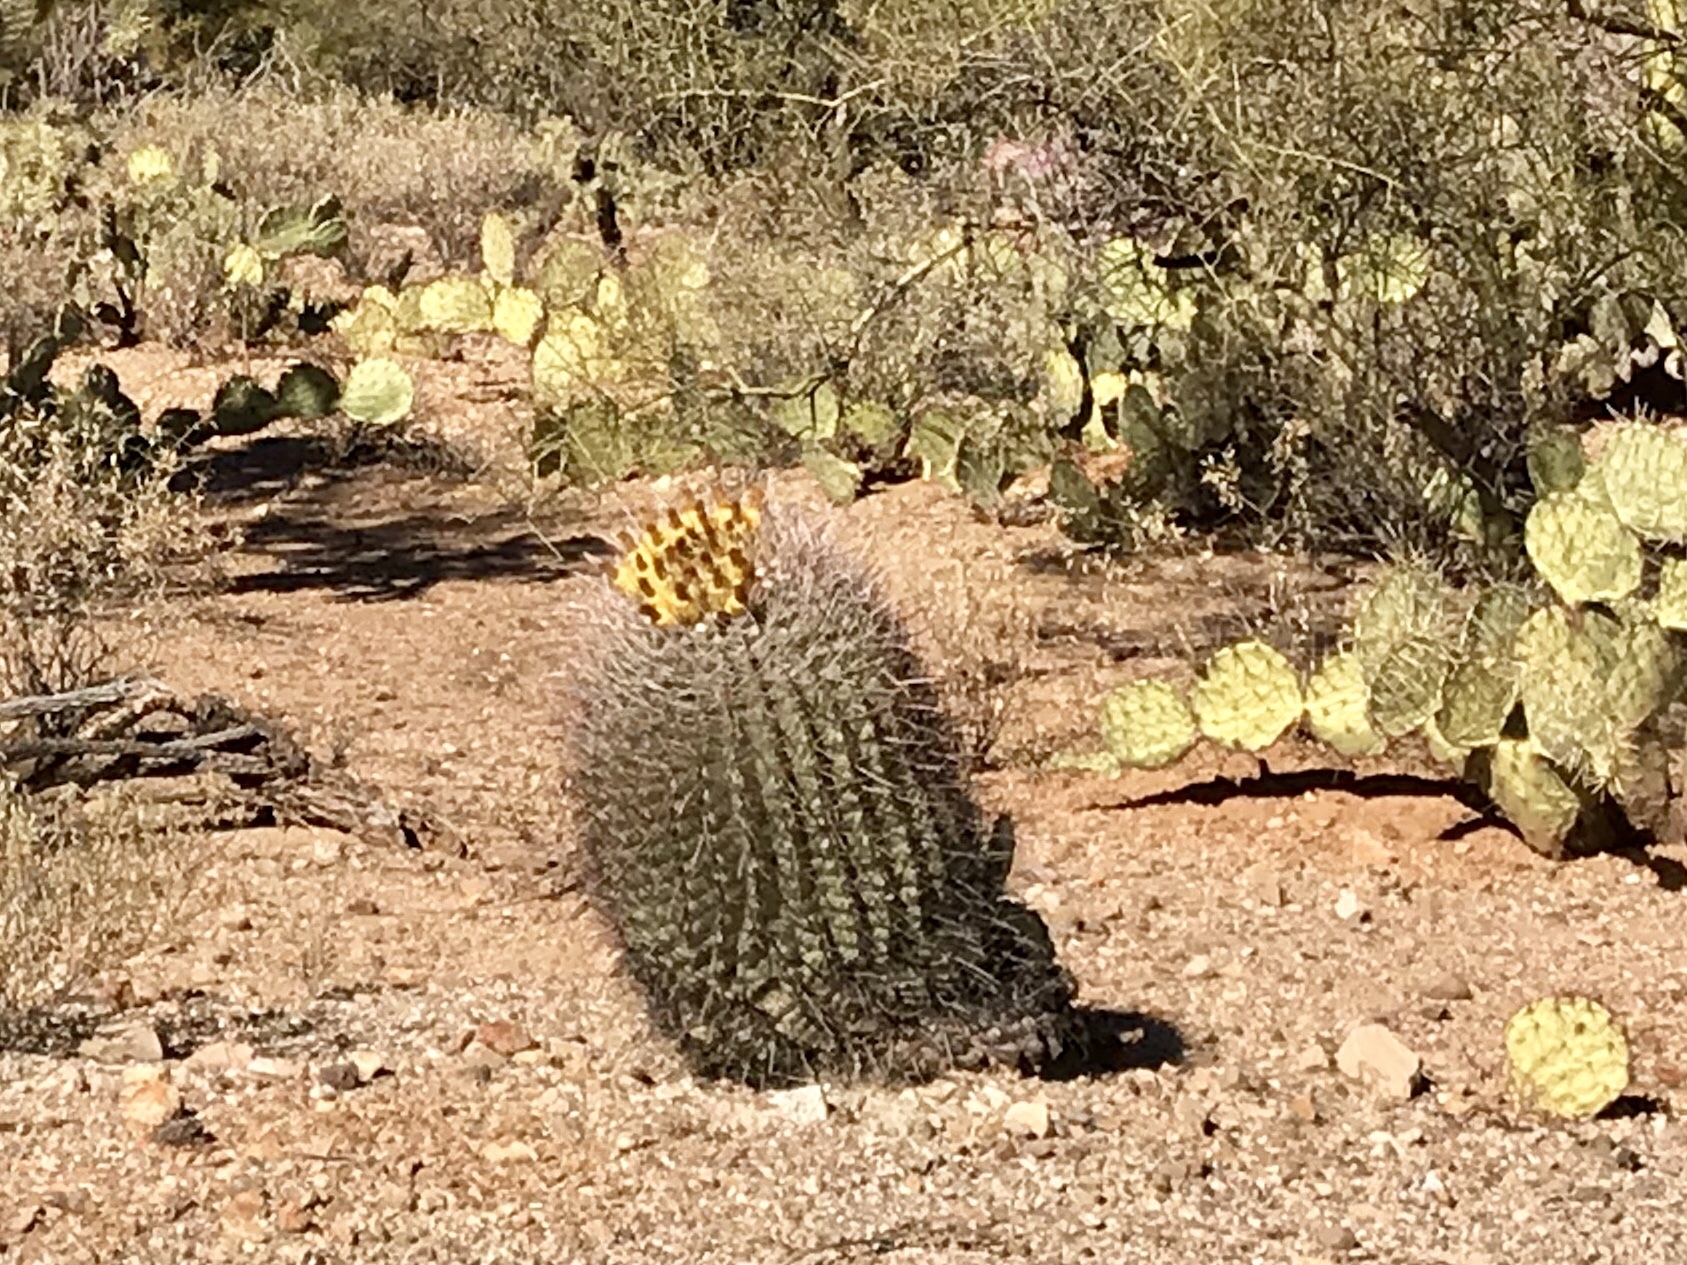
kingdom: Plantae
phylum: Tracheophyta
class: Magnoliopsida
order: Caryophyllales
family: Cactaceae
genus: Ferocactus
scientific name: Ferocactus wislizeni
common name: Candy barrel cactus
